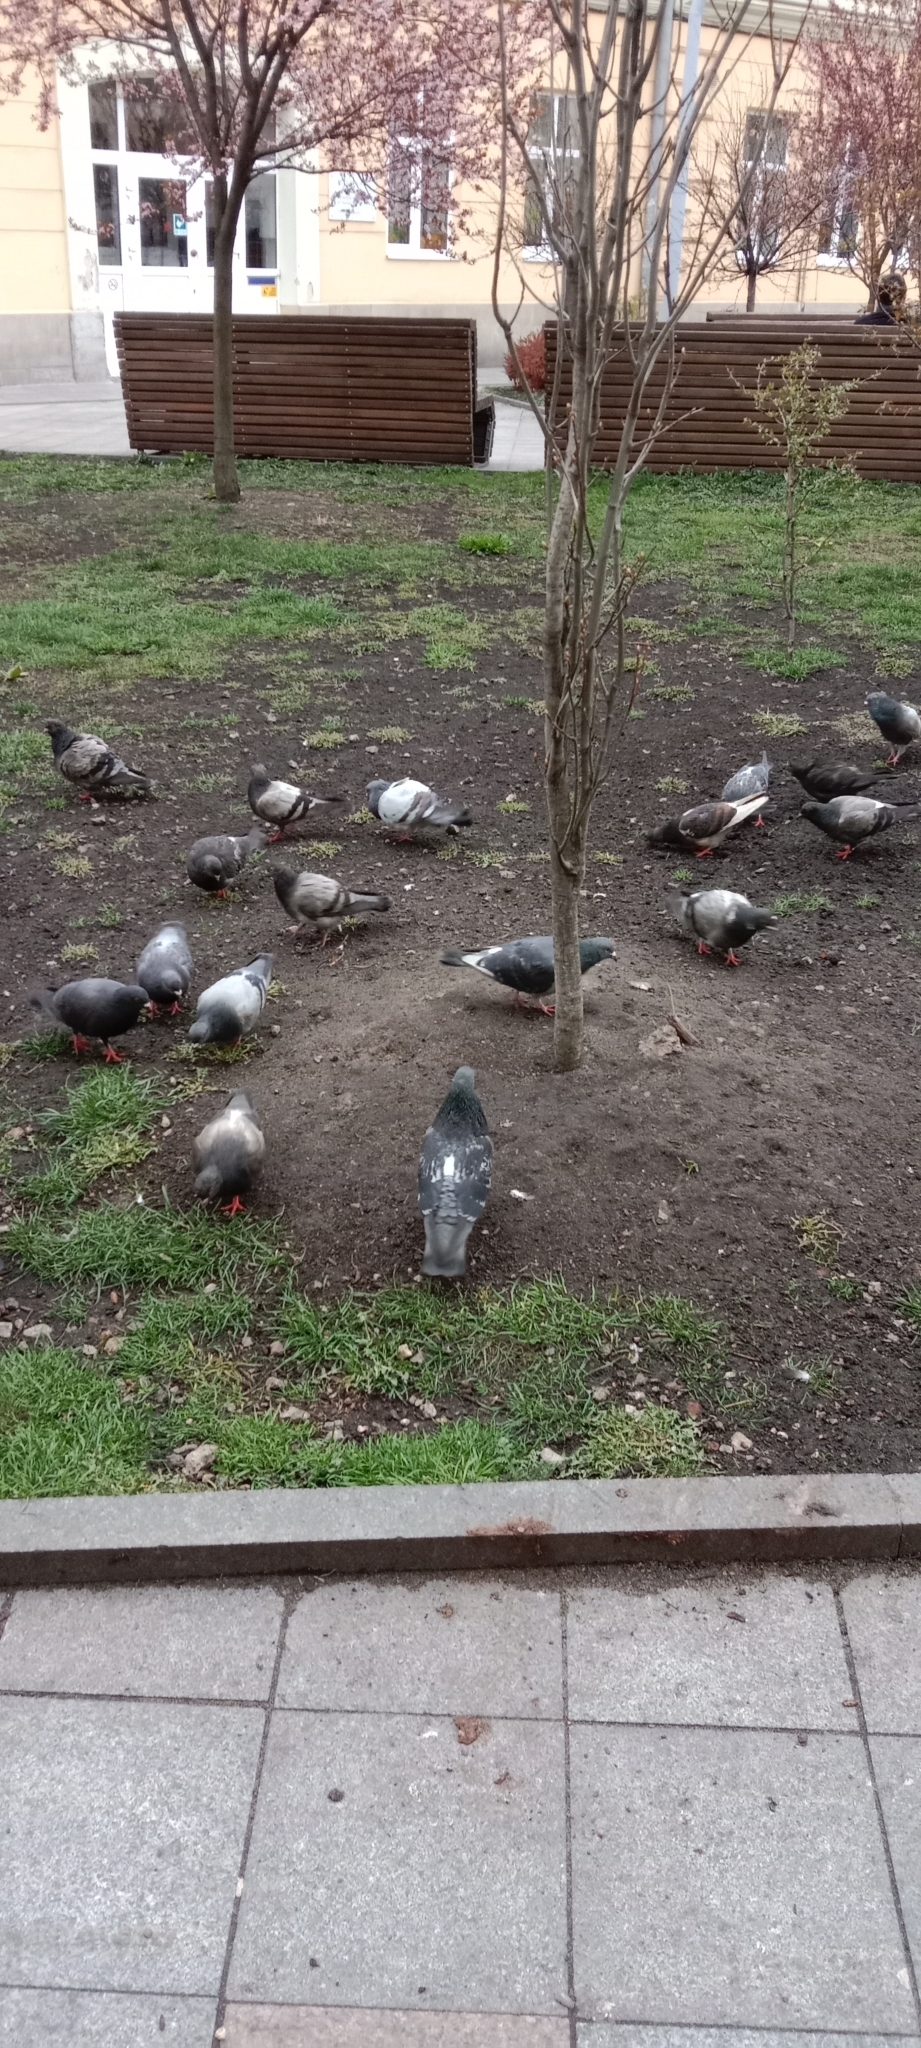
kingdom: Animalia
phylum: Chordata
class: Aves
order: Columbiformes
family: Columbidae
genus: Columba
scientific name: Columba livia
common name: Rock pigeon
